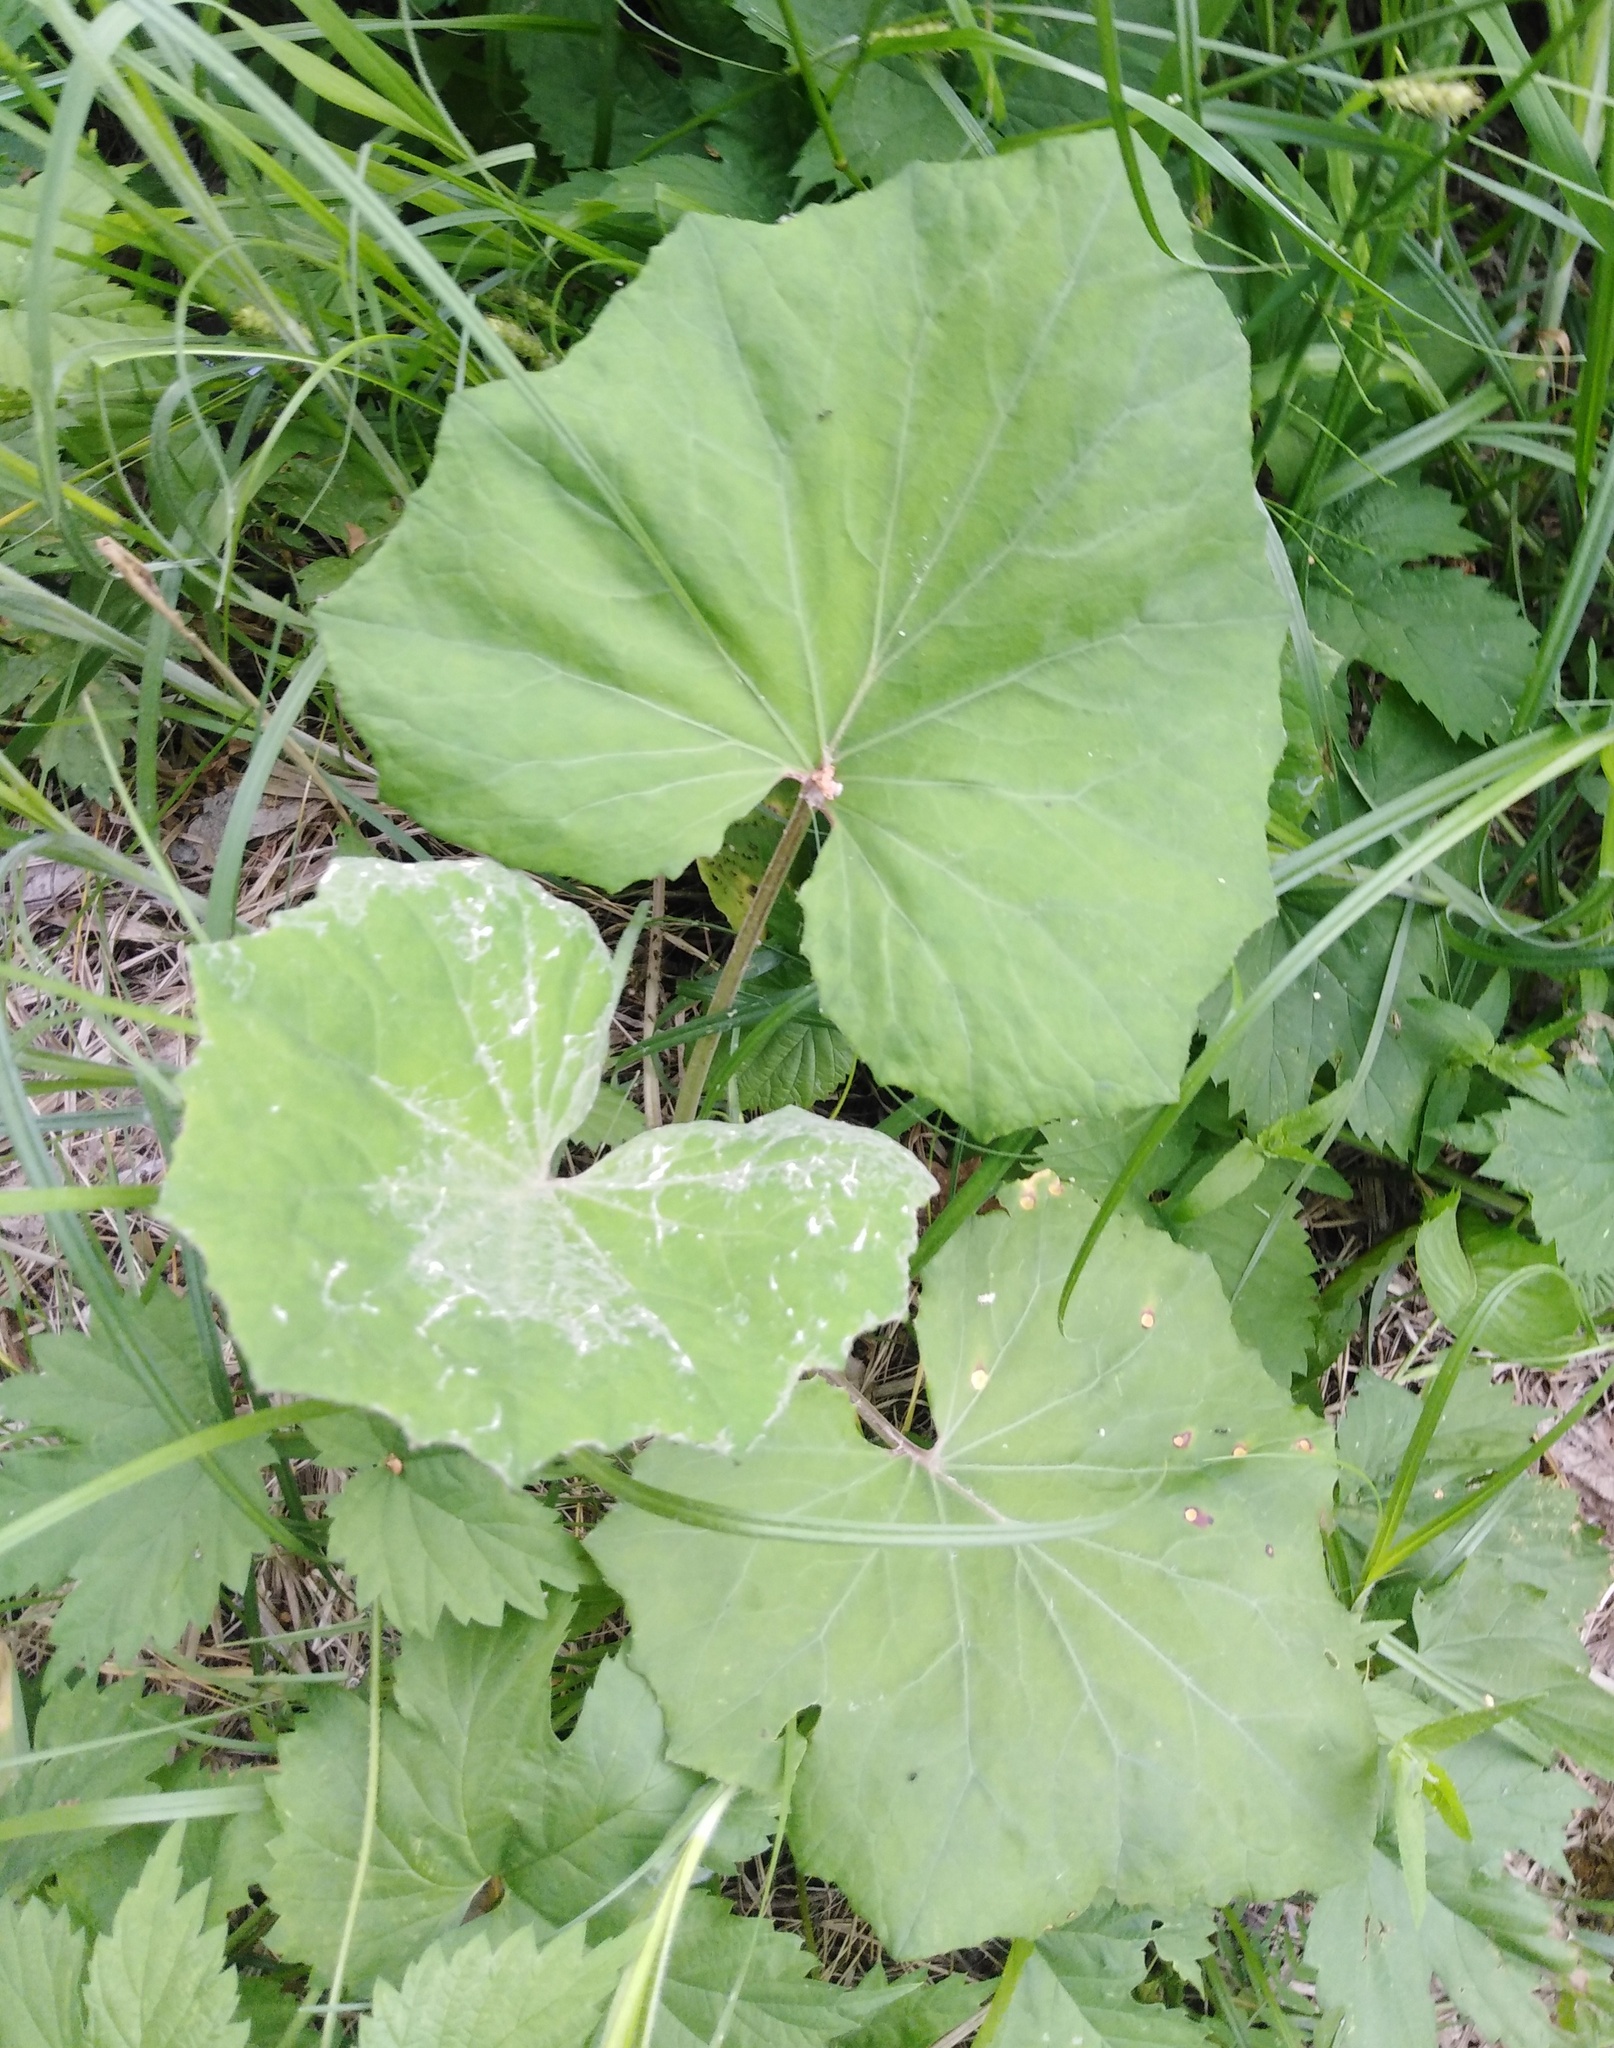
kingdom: Plantae
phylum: Tracheophyta
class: Magnoliopsida
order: Asterales
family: Asteraceae
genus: Tussilago
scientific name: Tussilago farfara
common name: Coltsfoot
